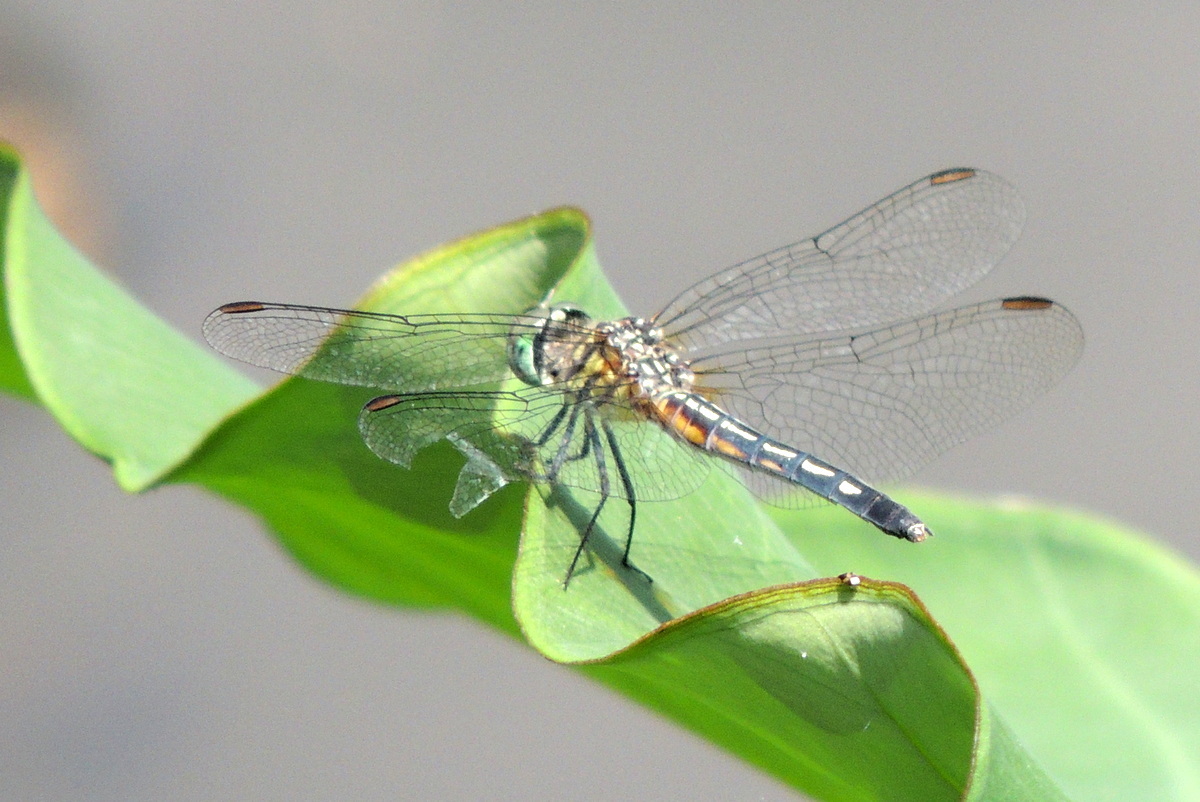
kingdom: Animalia
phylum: Arthropoda
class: Insecta
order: Odonata
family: Libellulidae
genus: Pachydiplax
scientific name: Pachydiplax longipennis
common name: Blue dasher
